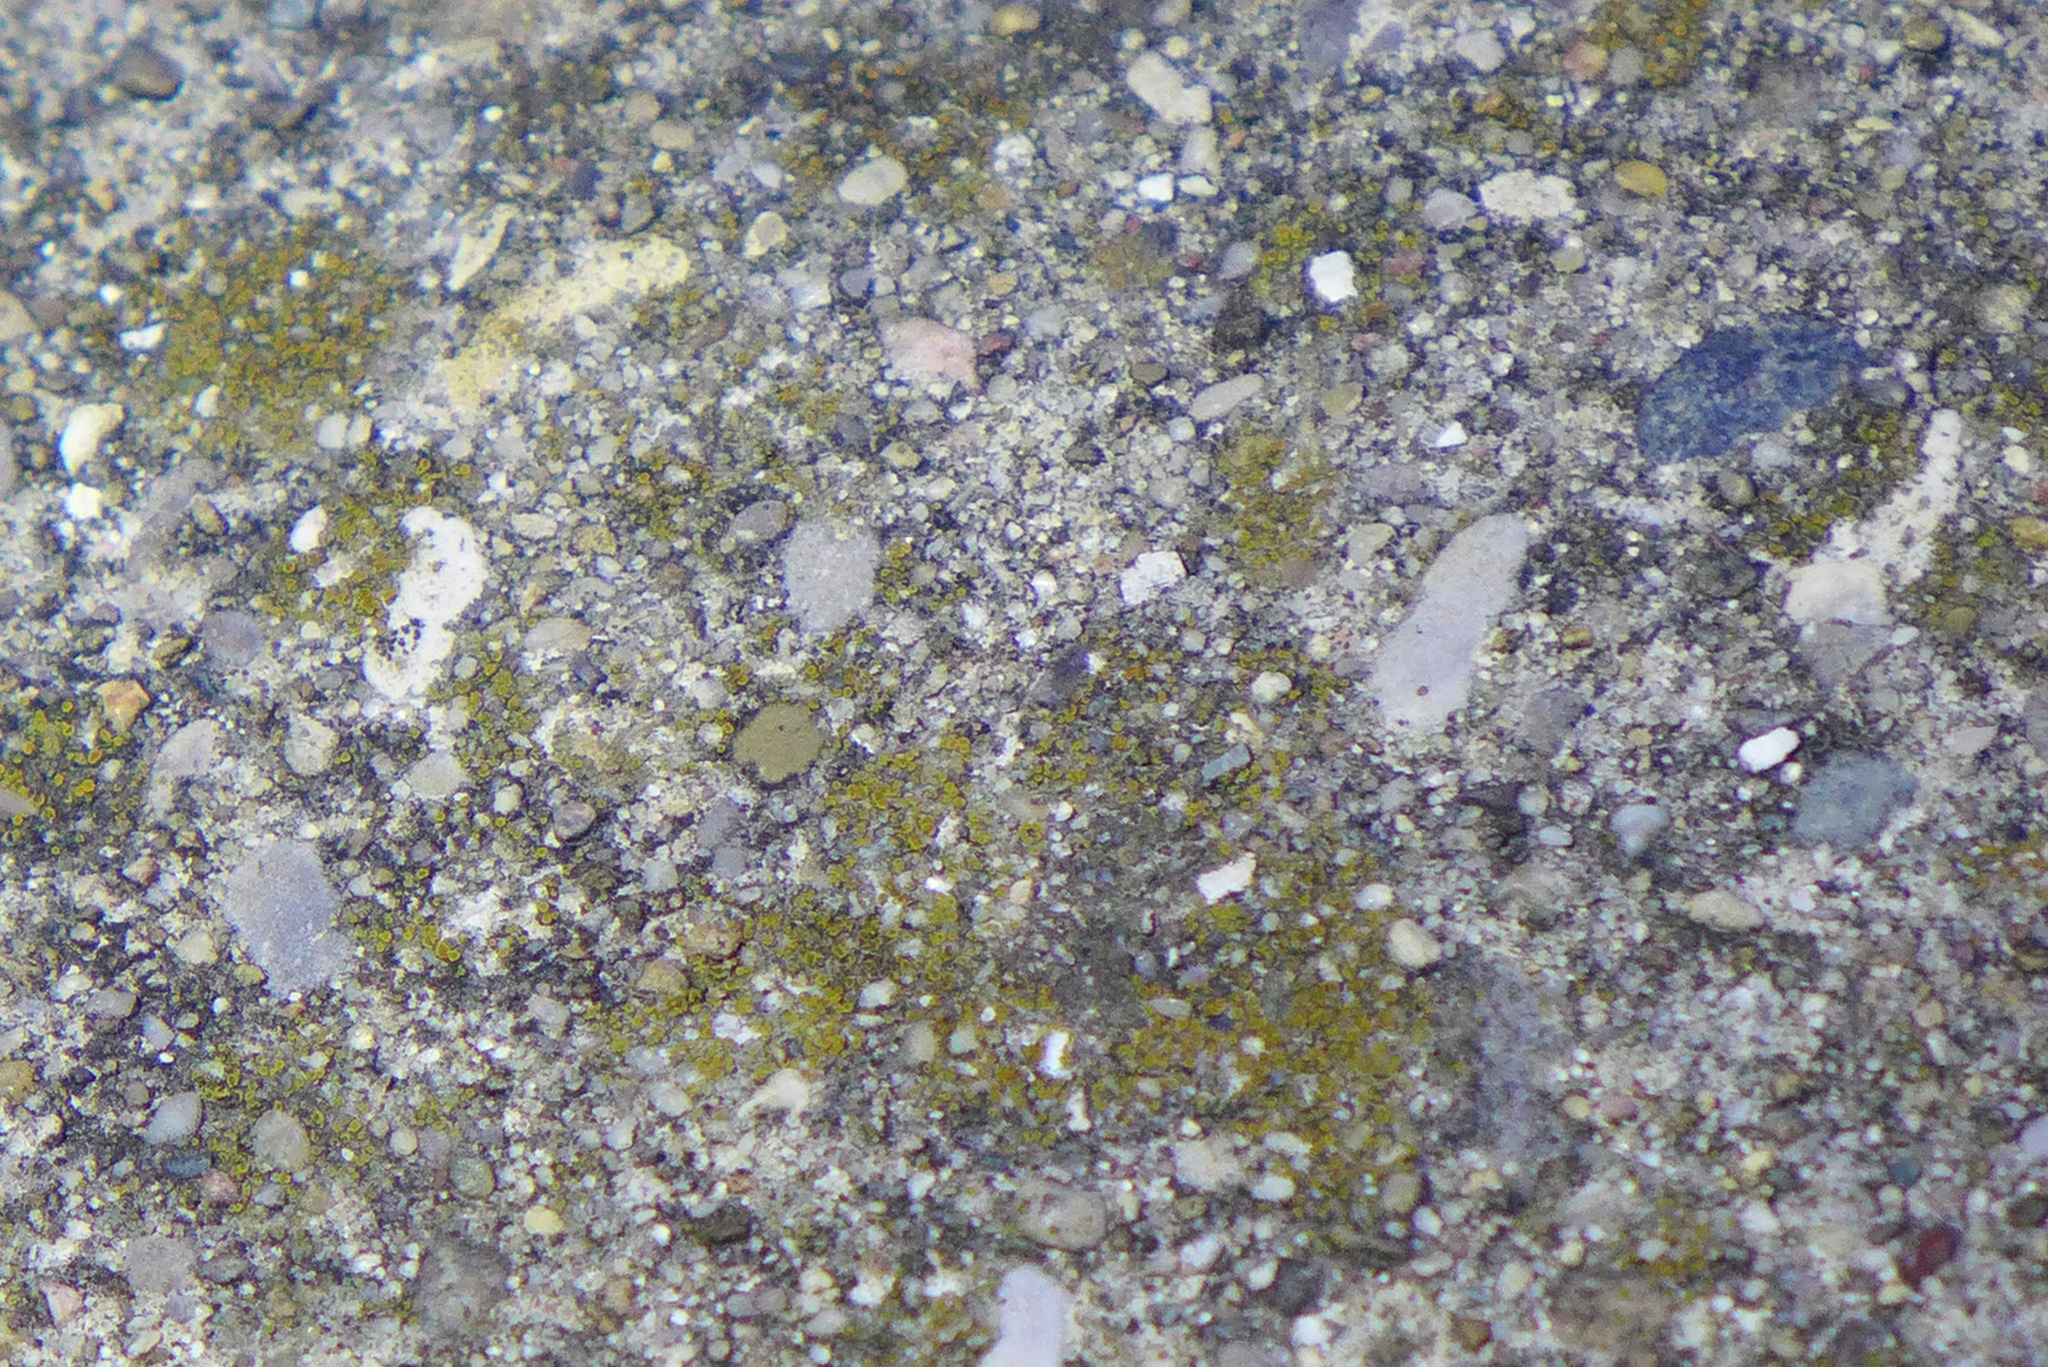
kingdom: Fungi
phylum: Ascomycota
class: Lecanoromycetes
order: Teloschistales
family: Teloschistaceae
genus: Xanthocarpia
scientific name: Xanthocarpia feracissima
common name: Sidewalk firedot
